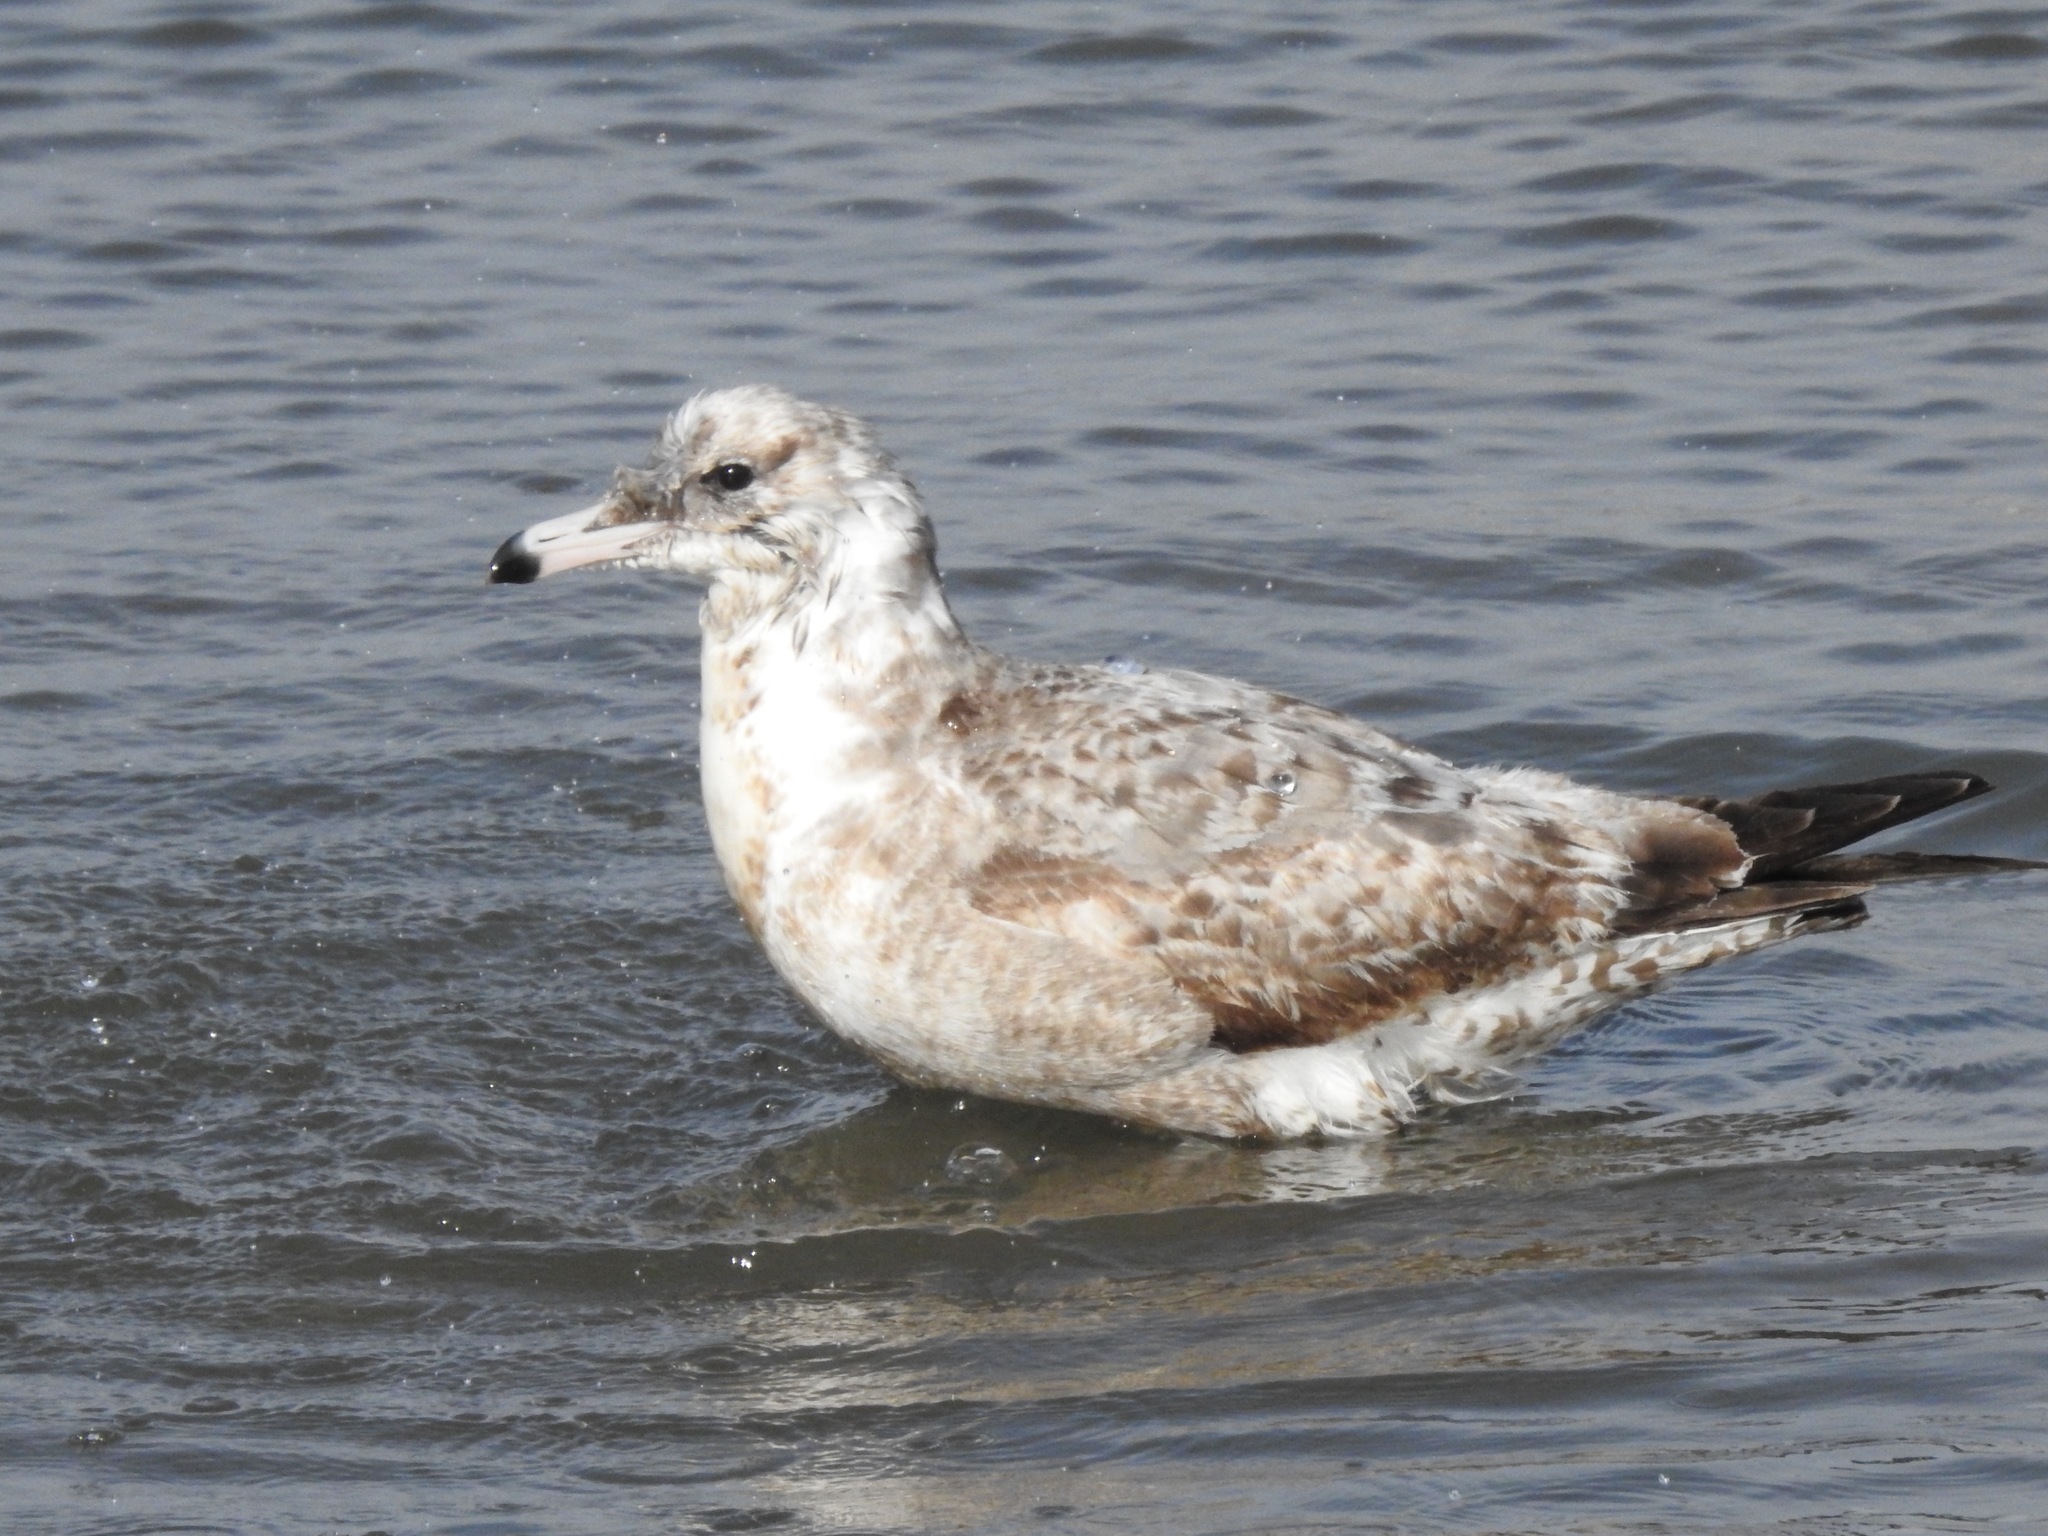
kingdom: Animalia
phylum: Chordata
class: Aves
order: Charadriiformes
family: Laridae
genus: Larus
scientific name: Larus californicus
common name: California gull
